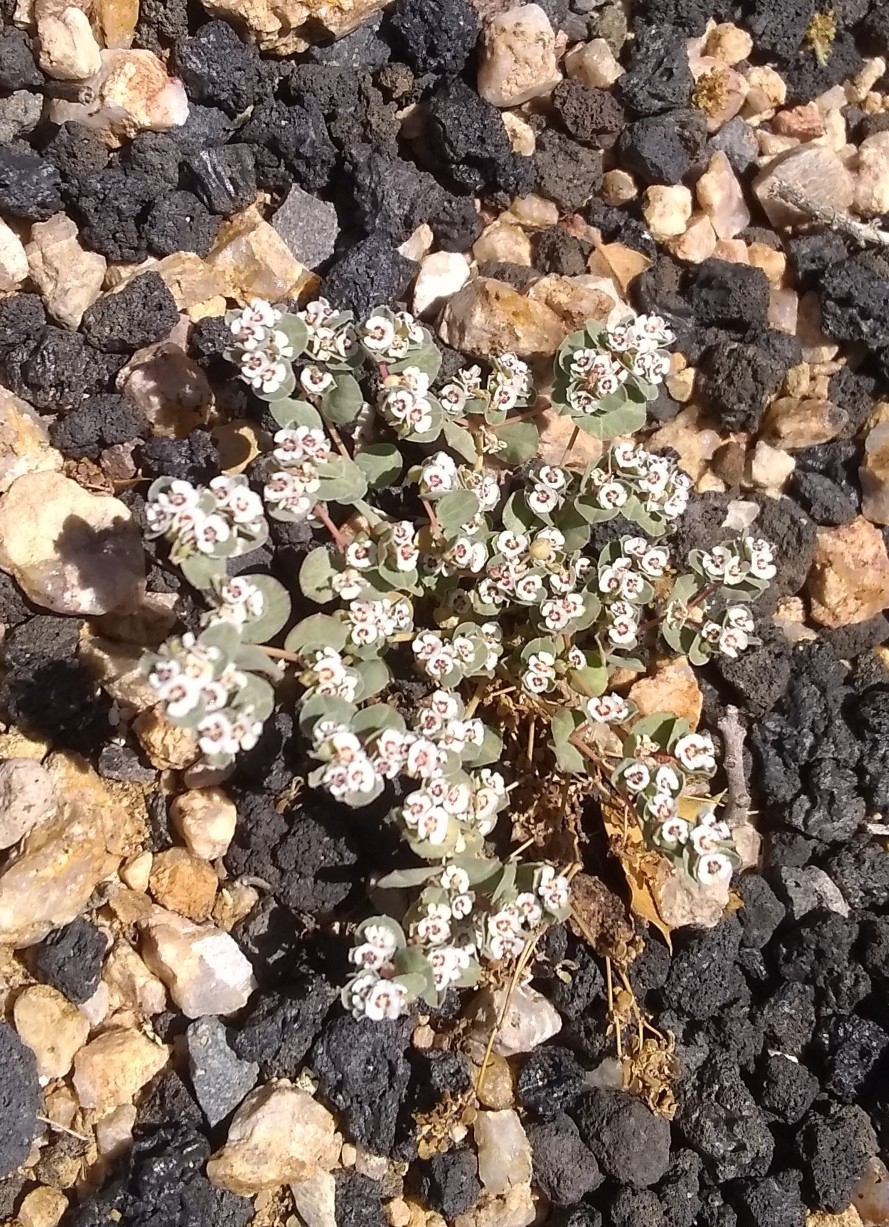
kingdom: Plantae
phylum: Tracheophyta
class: Magnoliopsida
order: Malpighiales
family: Euphorbiaceae
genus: Euphorbia
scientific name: Euphorbia albomarginata
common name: Whitemargin sandmat
